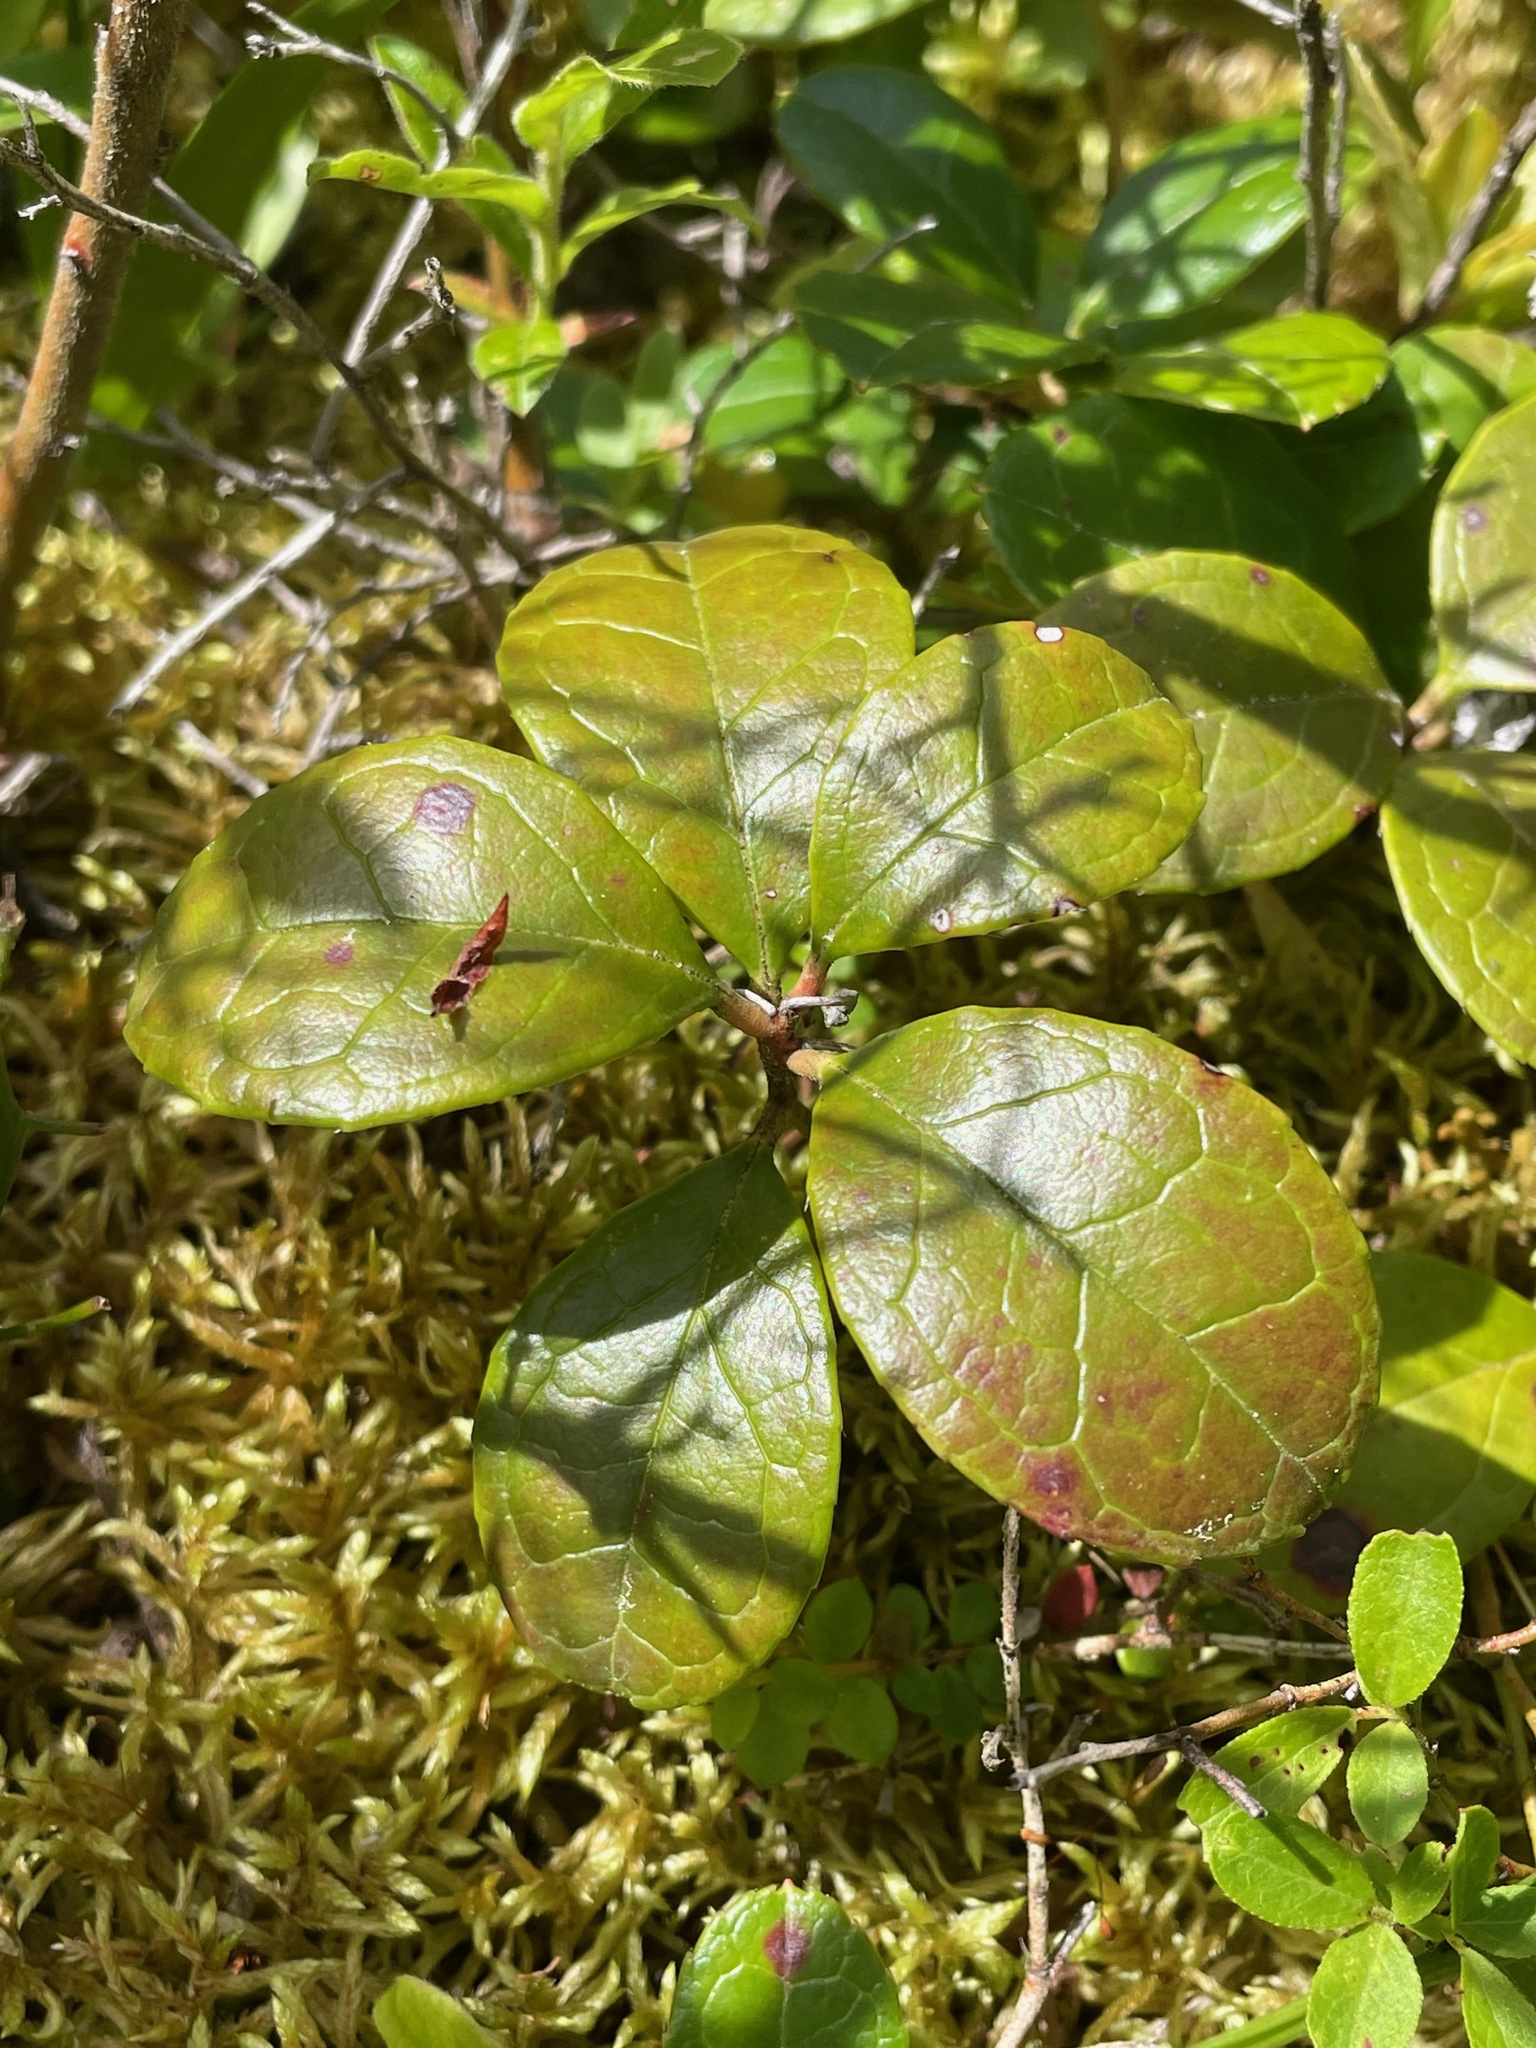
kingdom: Plantae
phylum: Tracheophyta
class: Magnoliopsida
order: Ericales
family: Ericaceae
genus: Gaultheria
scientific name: Gaultheria procumbens
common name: Checkerberry
